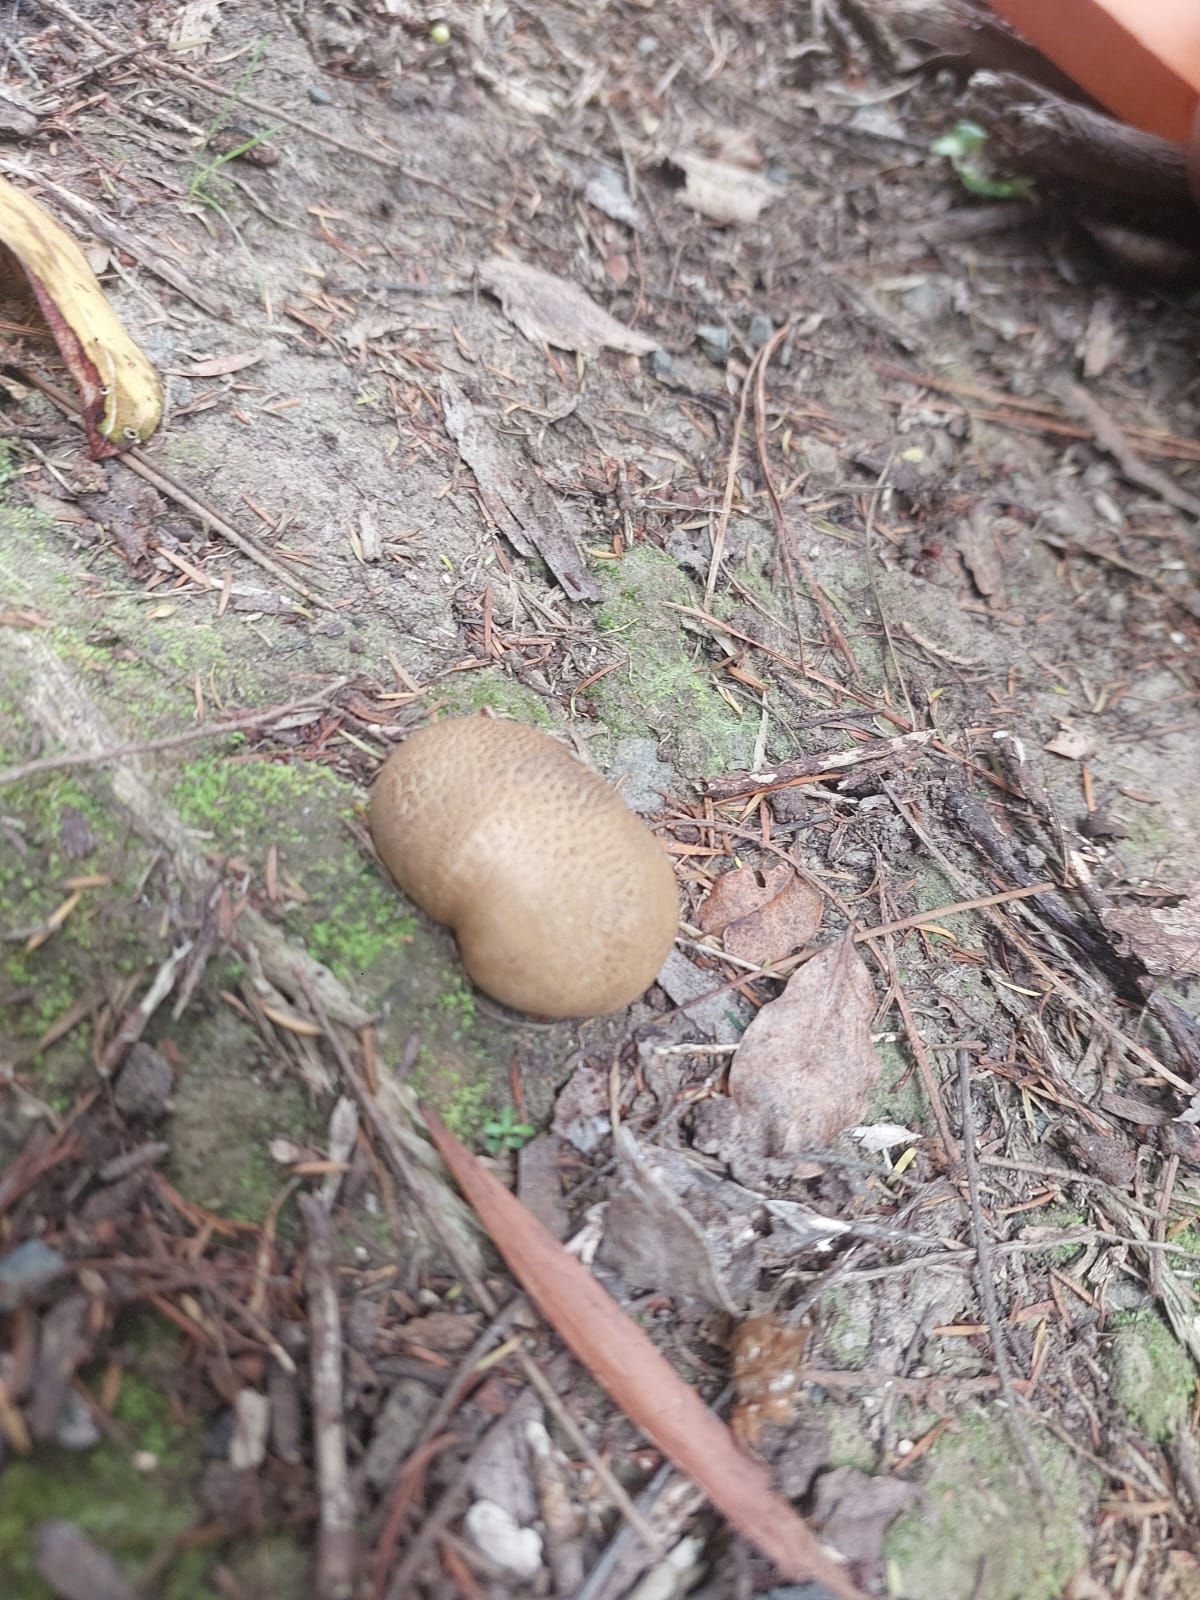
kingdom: Fungi
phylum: Basidiomycota
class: Agaricomycetes
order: Boletales
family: Sclerodermataceae
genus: Scleroderma
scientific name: Scleroderma bovista
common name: Potato earthball
